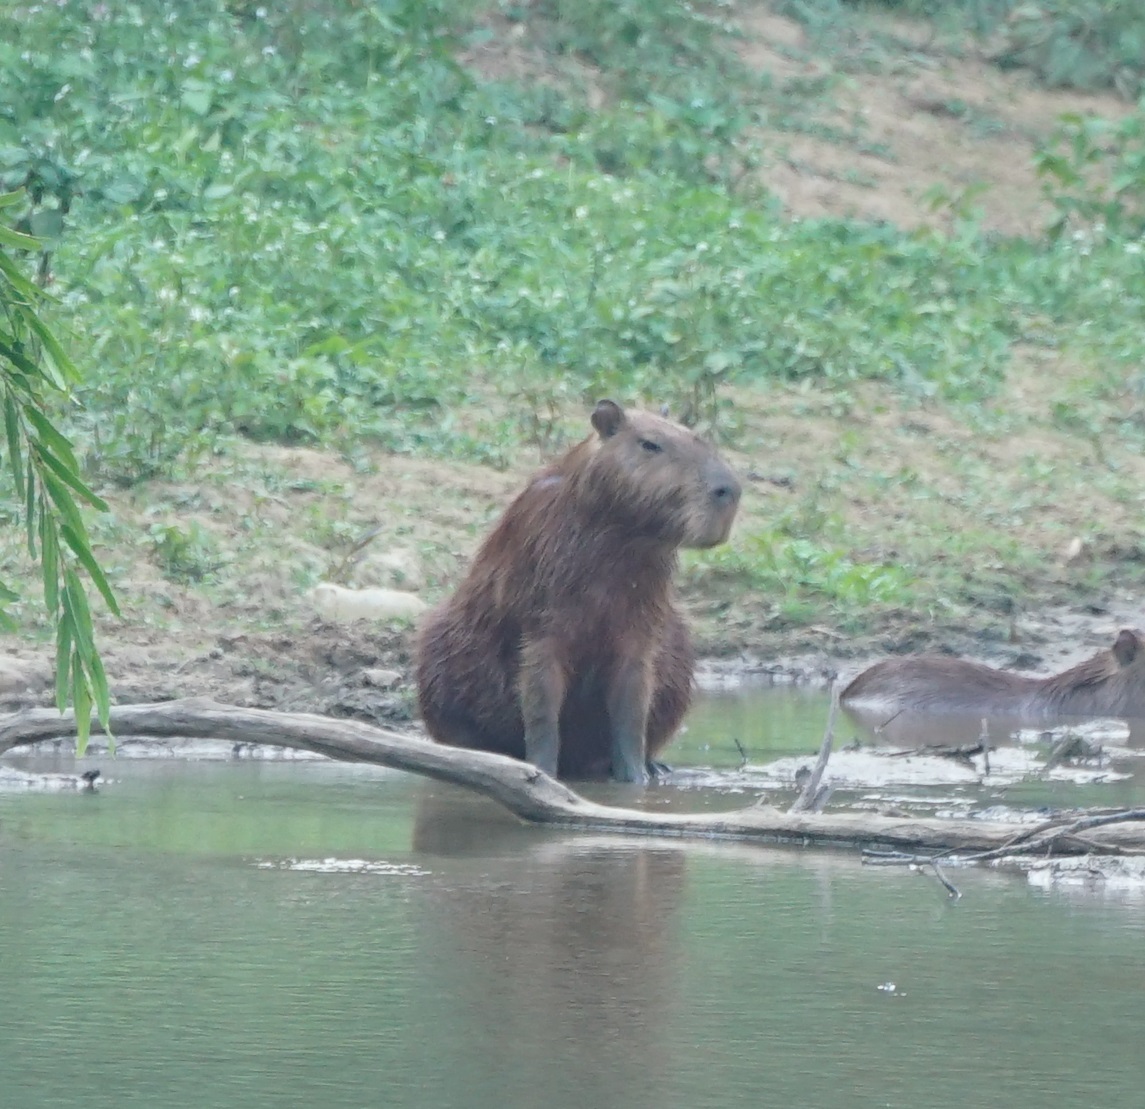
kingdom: Animalia
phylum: Chordata
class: Mammalia
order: Rodentia
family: Caviidae
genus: Hydrochoerus
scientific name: Hydrochoerus hydrochaeris
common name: Capybara
